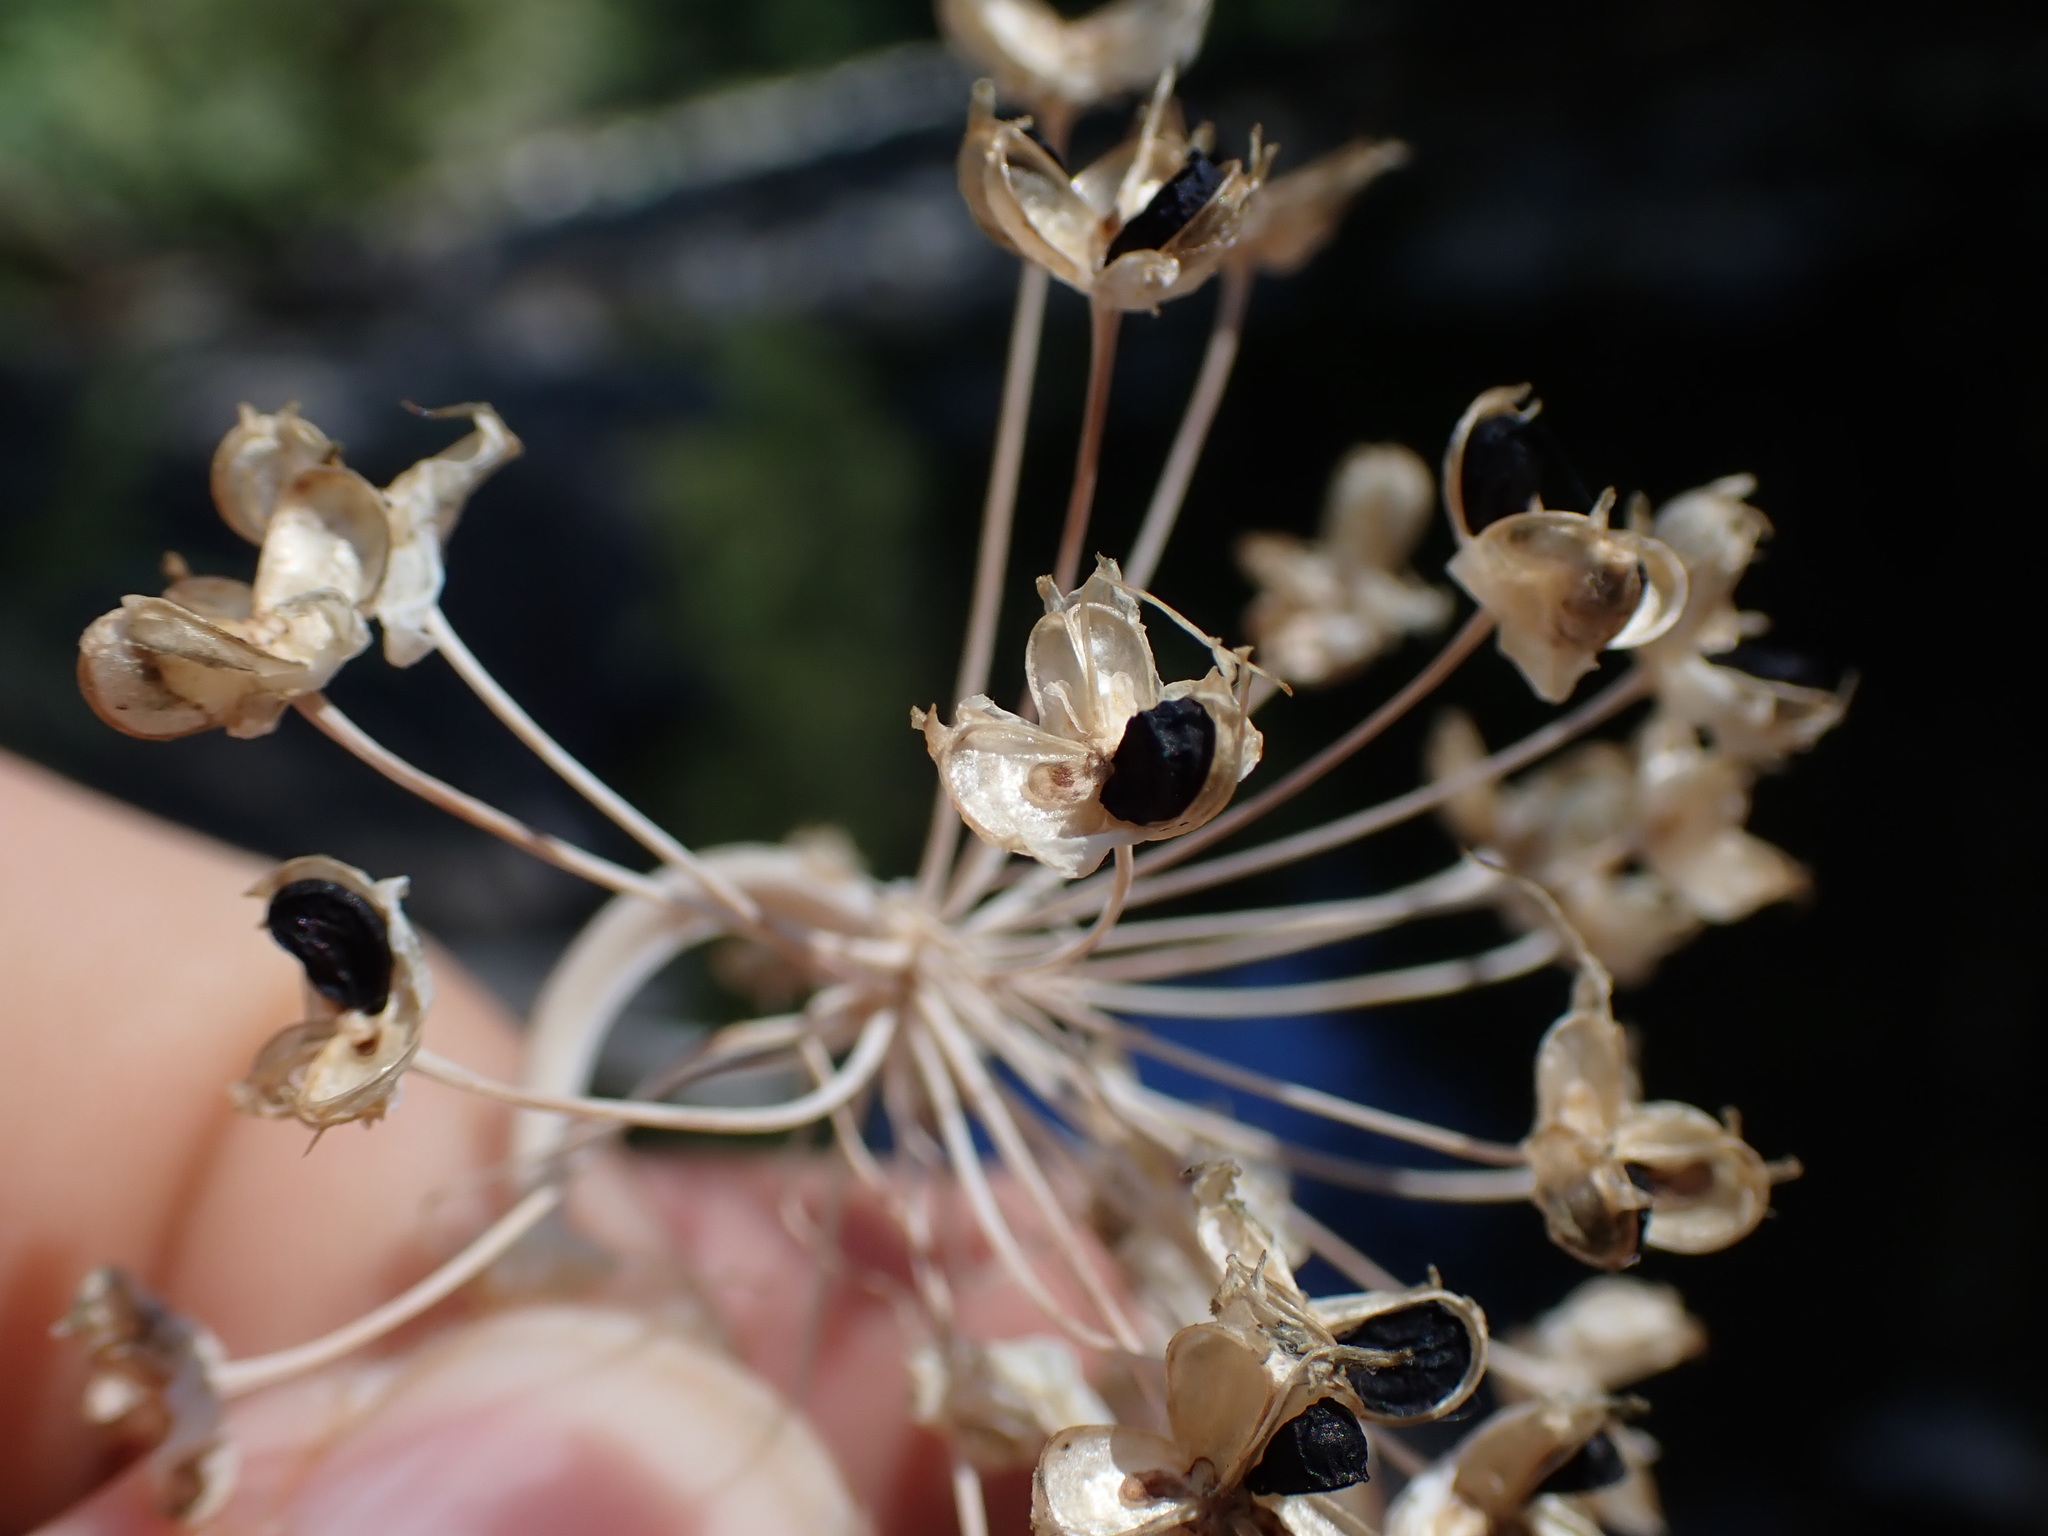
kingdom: Plantae
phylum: Tracheophyta
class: Liliopsida
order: Asparagales
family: Amaryllidaceae
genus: Allium
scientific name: Allium cernuum
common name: Nodding onion
